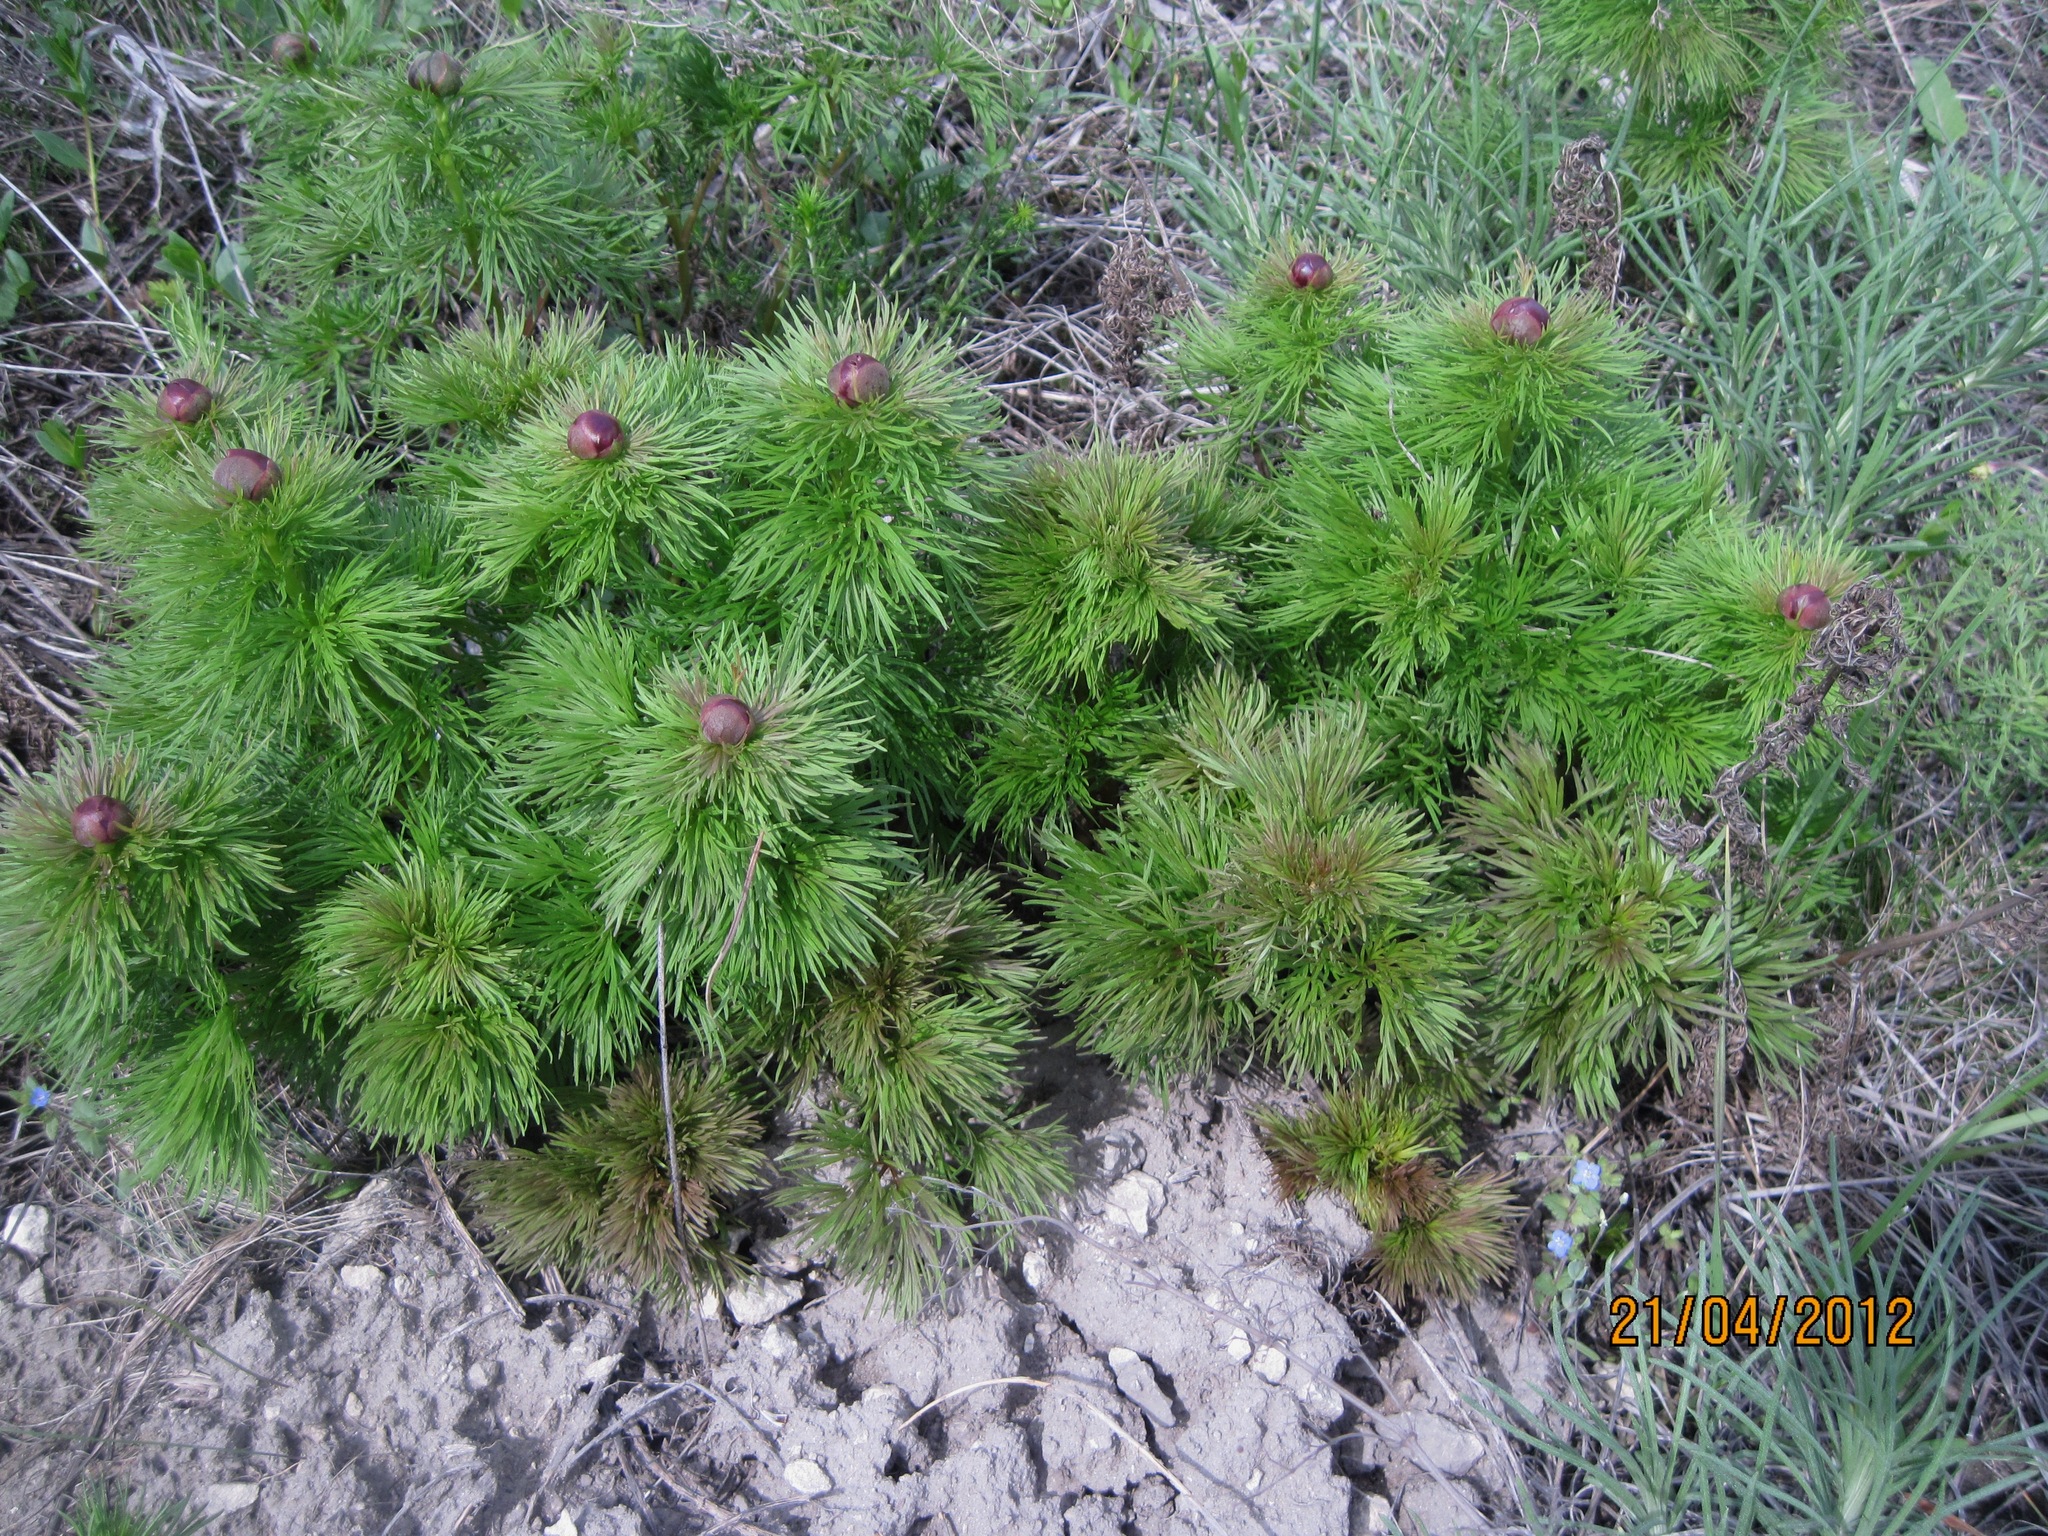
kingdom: Plantae
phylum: Tracheophyta
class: Magnoliopsida
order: Saxifragales
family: Paeoniaceae
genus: Paeonia
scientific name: Paeonia tenuifolia
